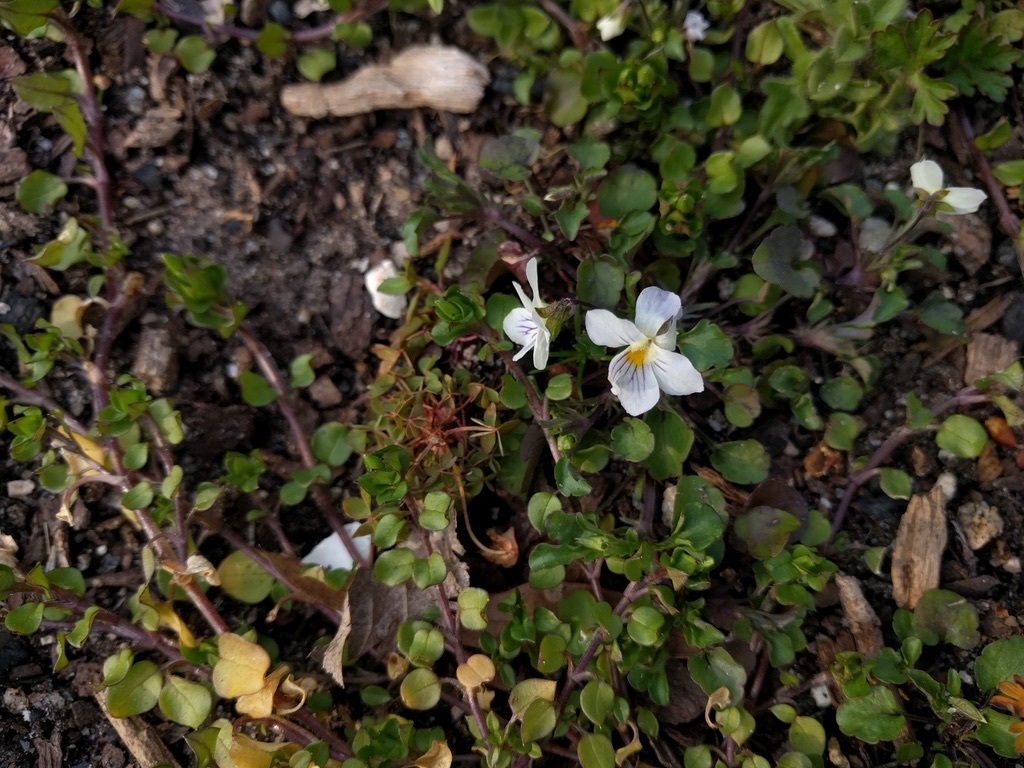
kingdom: Plantae
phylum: Tracheophyta
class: Magnoliopsida
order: Malpighiales
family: Violaceae
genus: Viola
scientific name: Viola rafinesquei
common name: American field pansy
